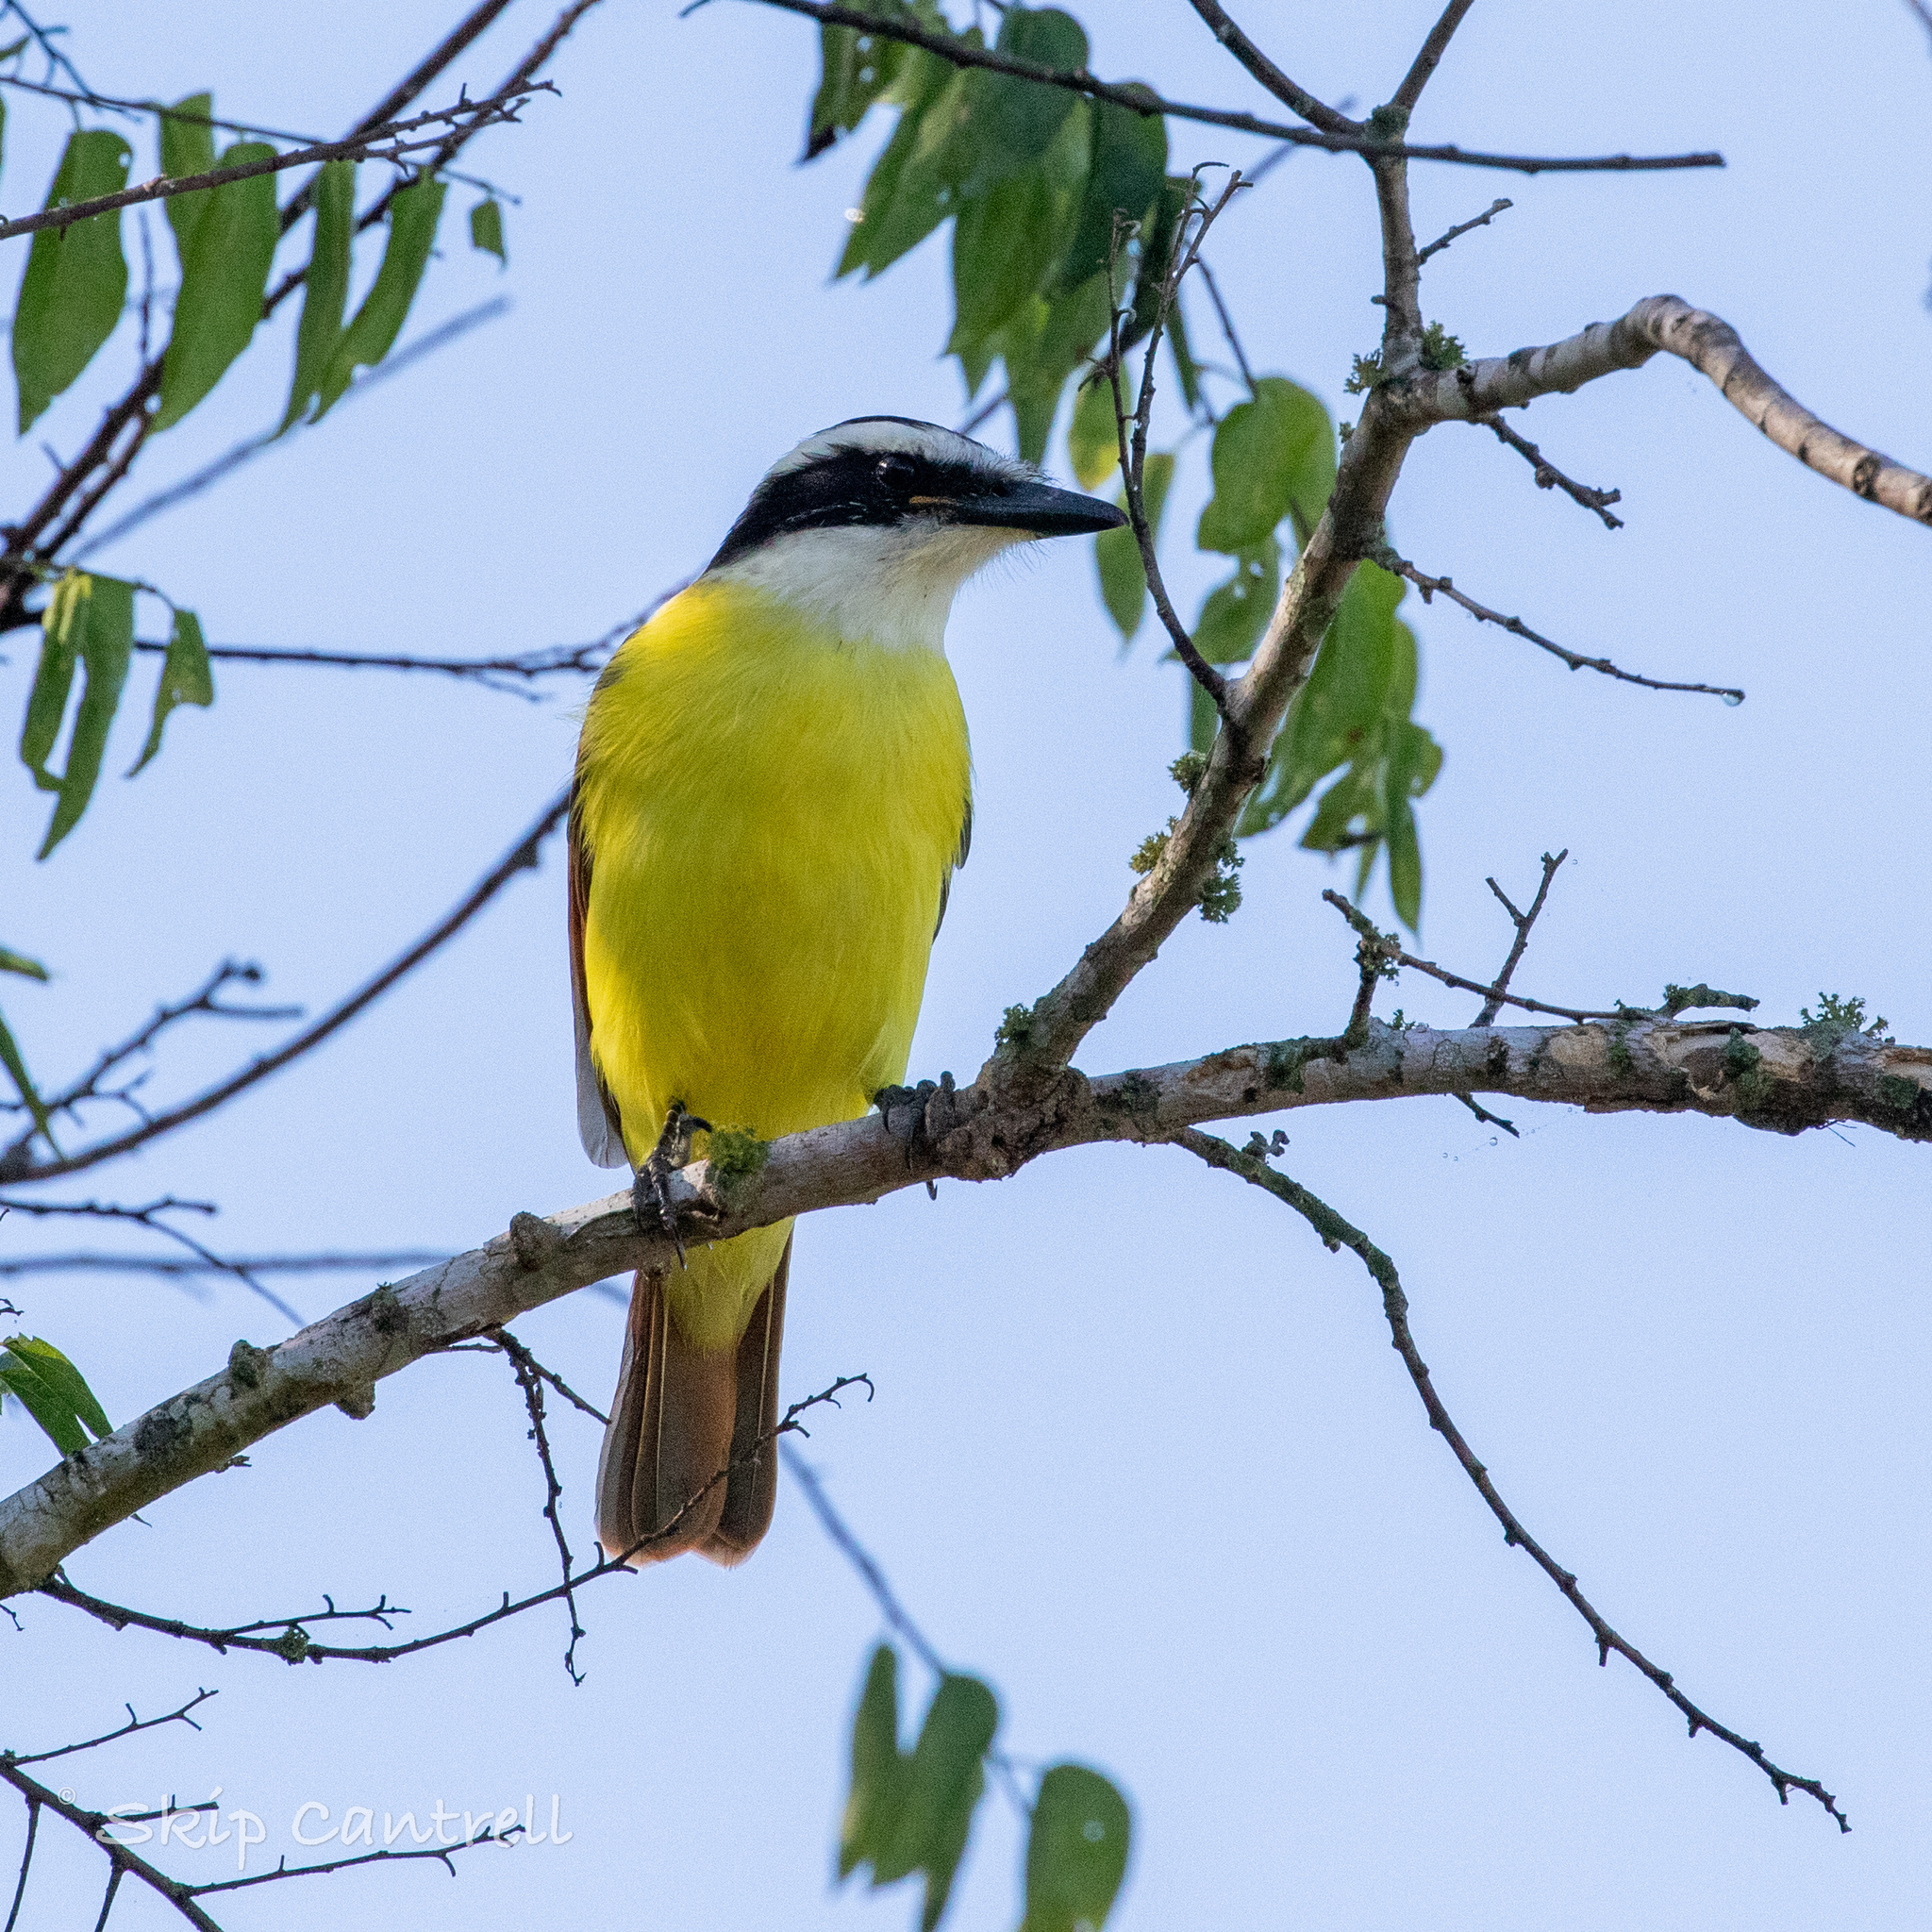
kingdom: Animalia
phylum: Chordata
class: Aves
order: Passeriformes
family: Tyrannidae
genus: Pitangus
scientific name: Pitangus sulphuratus
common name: Great kiskadee
